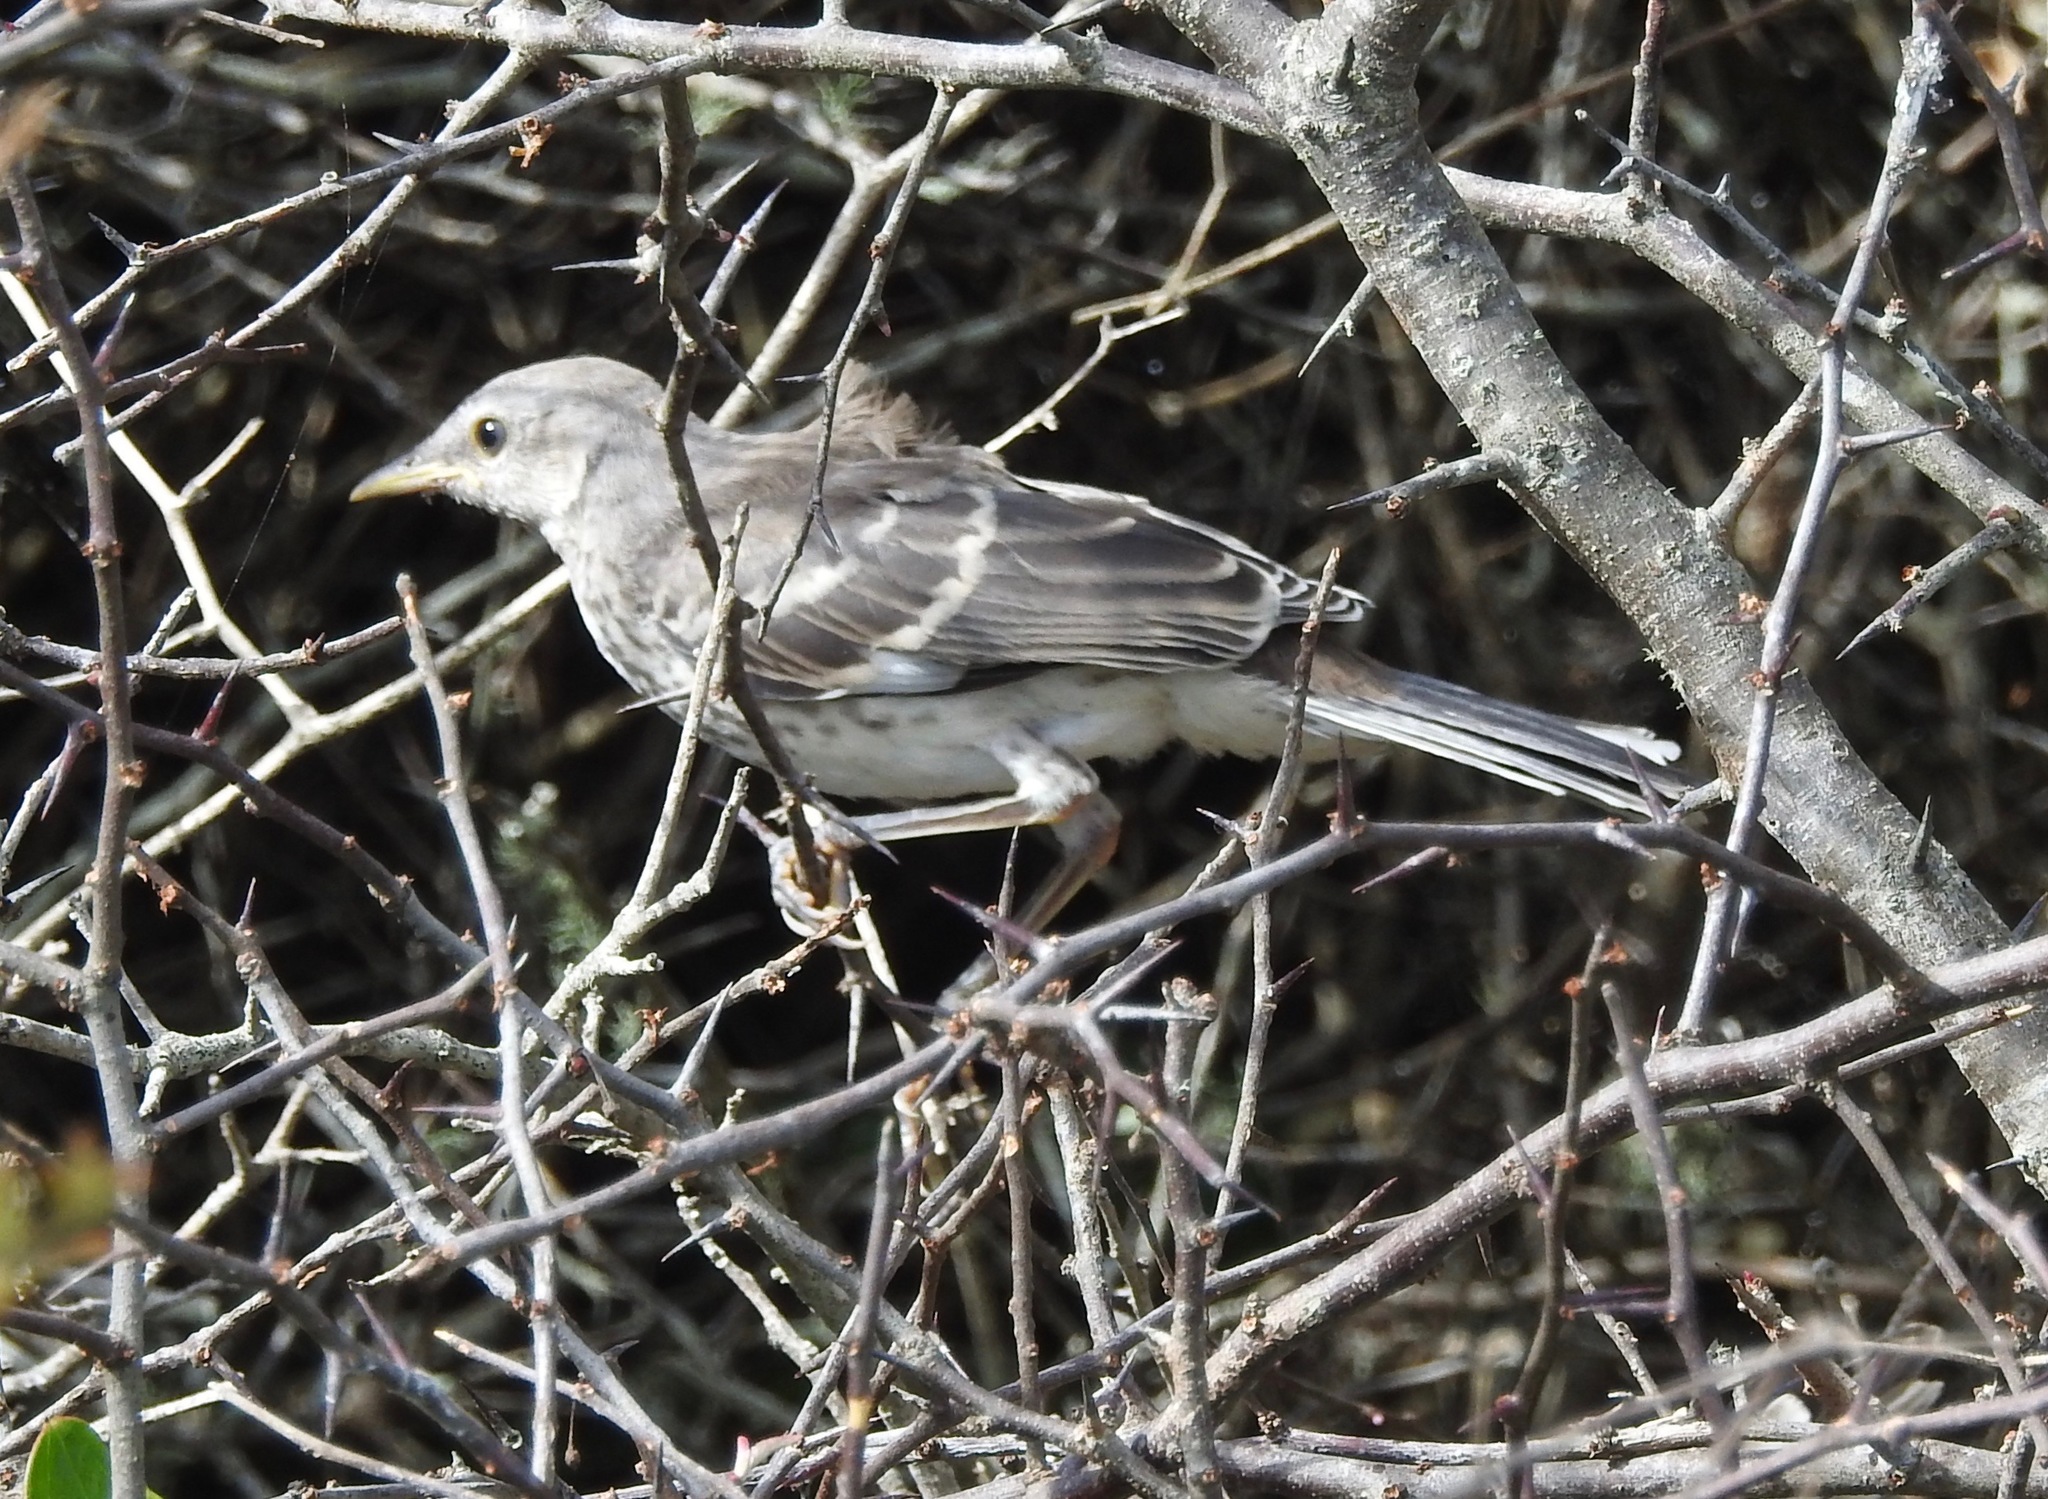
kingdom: Animalia
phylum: Chordata
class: Aves
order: Passeriformes
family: Mimidae
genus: Mimus
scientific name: Mimus polyglottos
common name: Northern mockingbird
